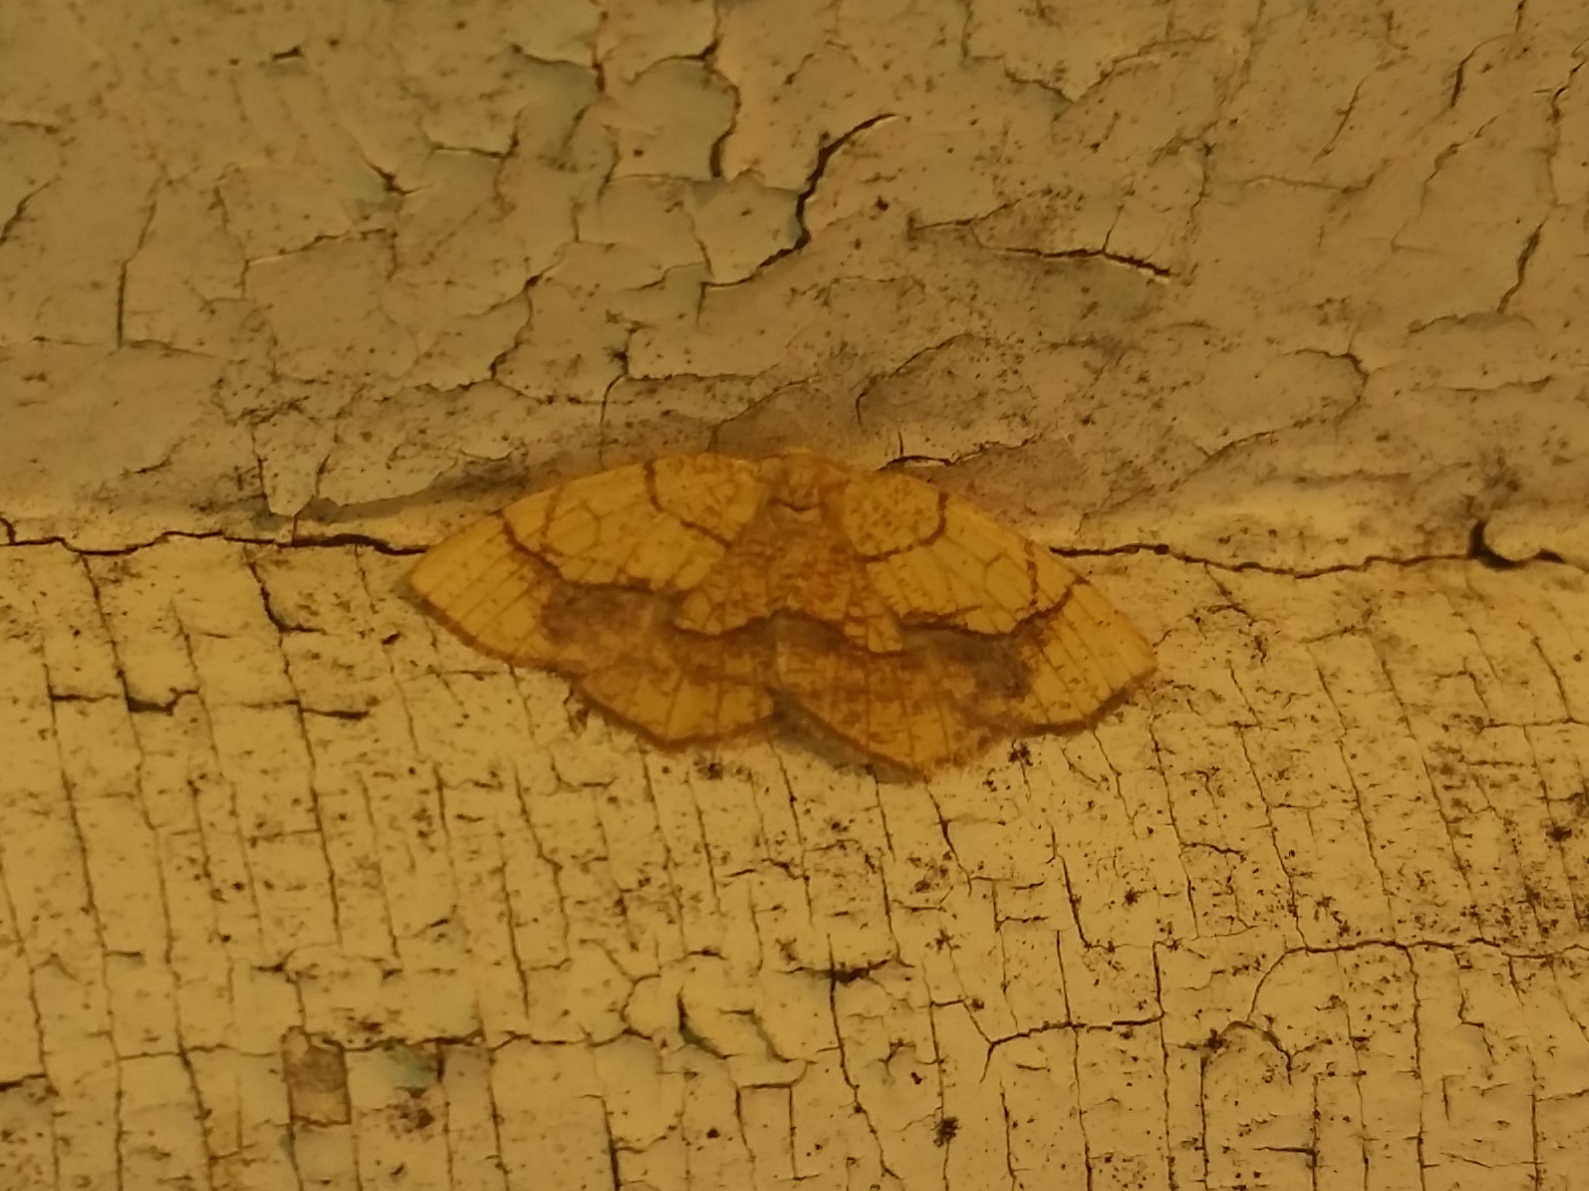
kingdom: Animalia
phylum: Arthropoda
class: Insecta
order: Lepidoptera
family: Geometridae
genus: Nematocampa
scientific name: Nematocampa resistaria
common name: Horned spanworm moth
